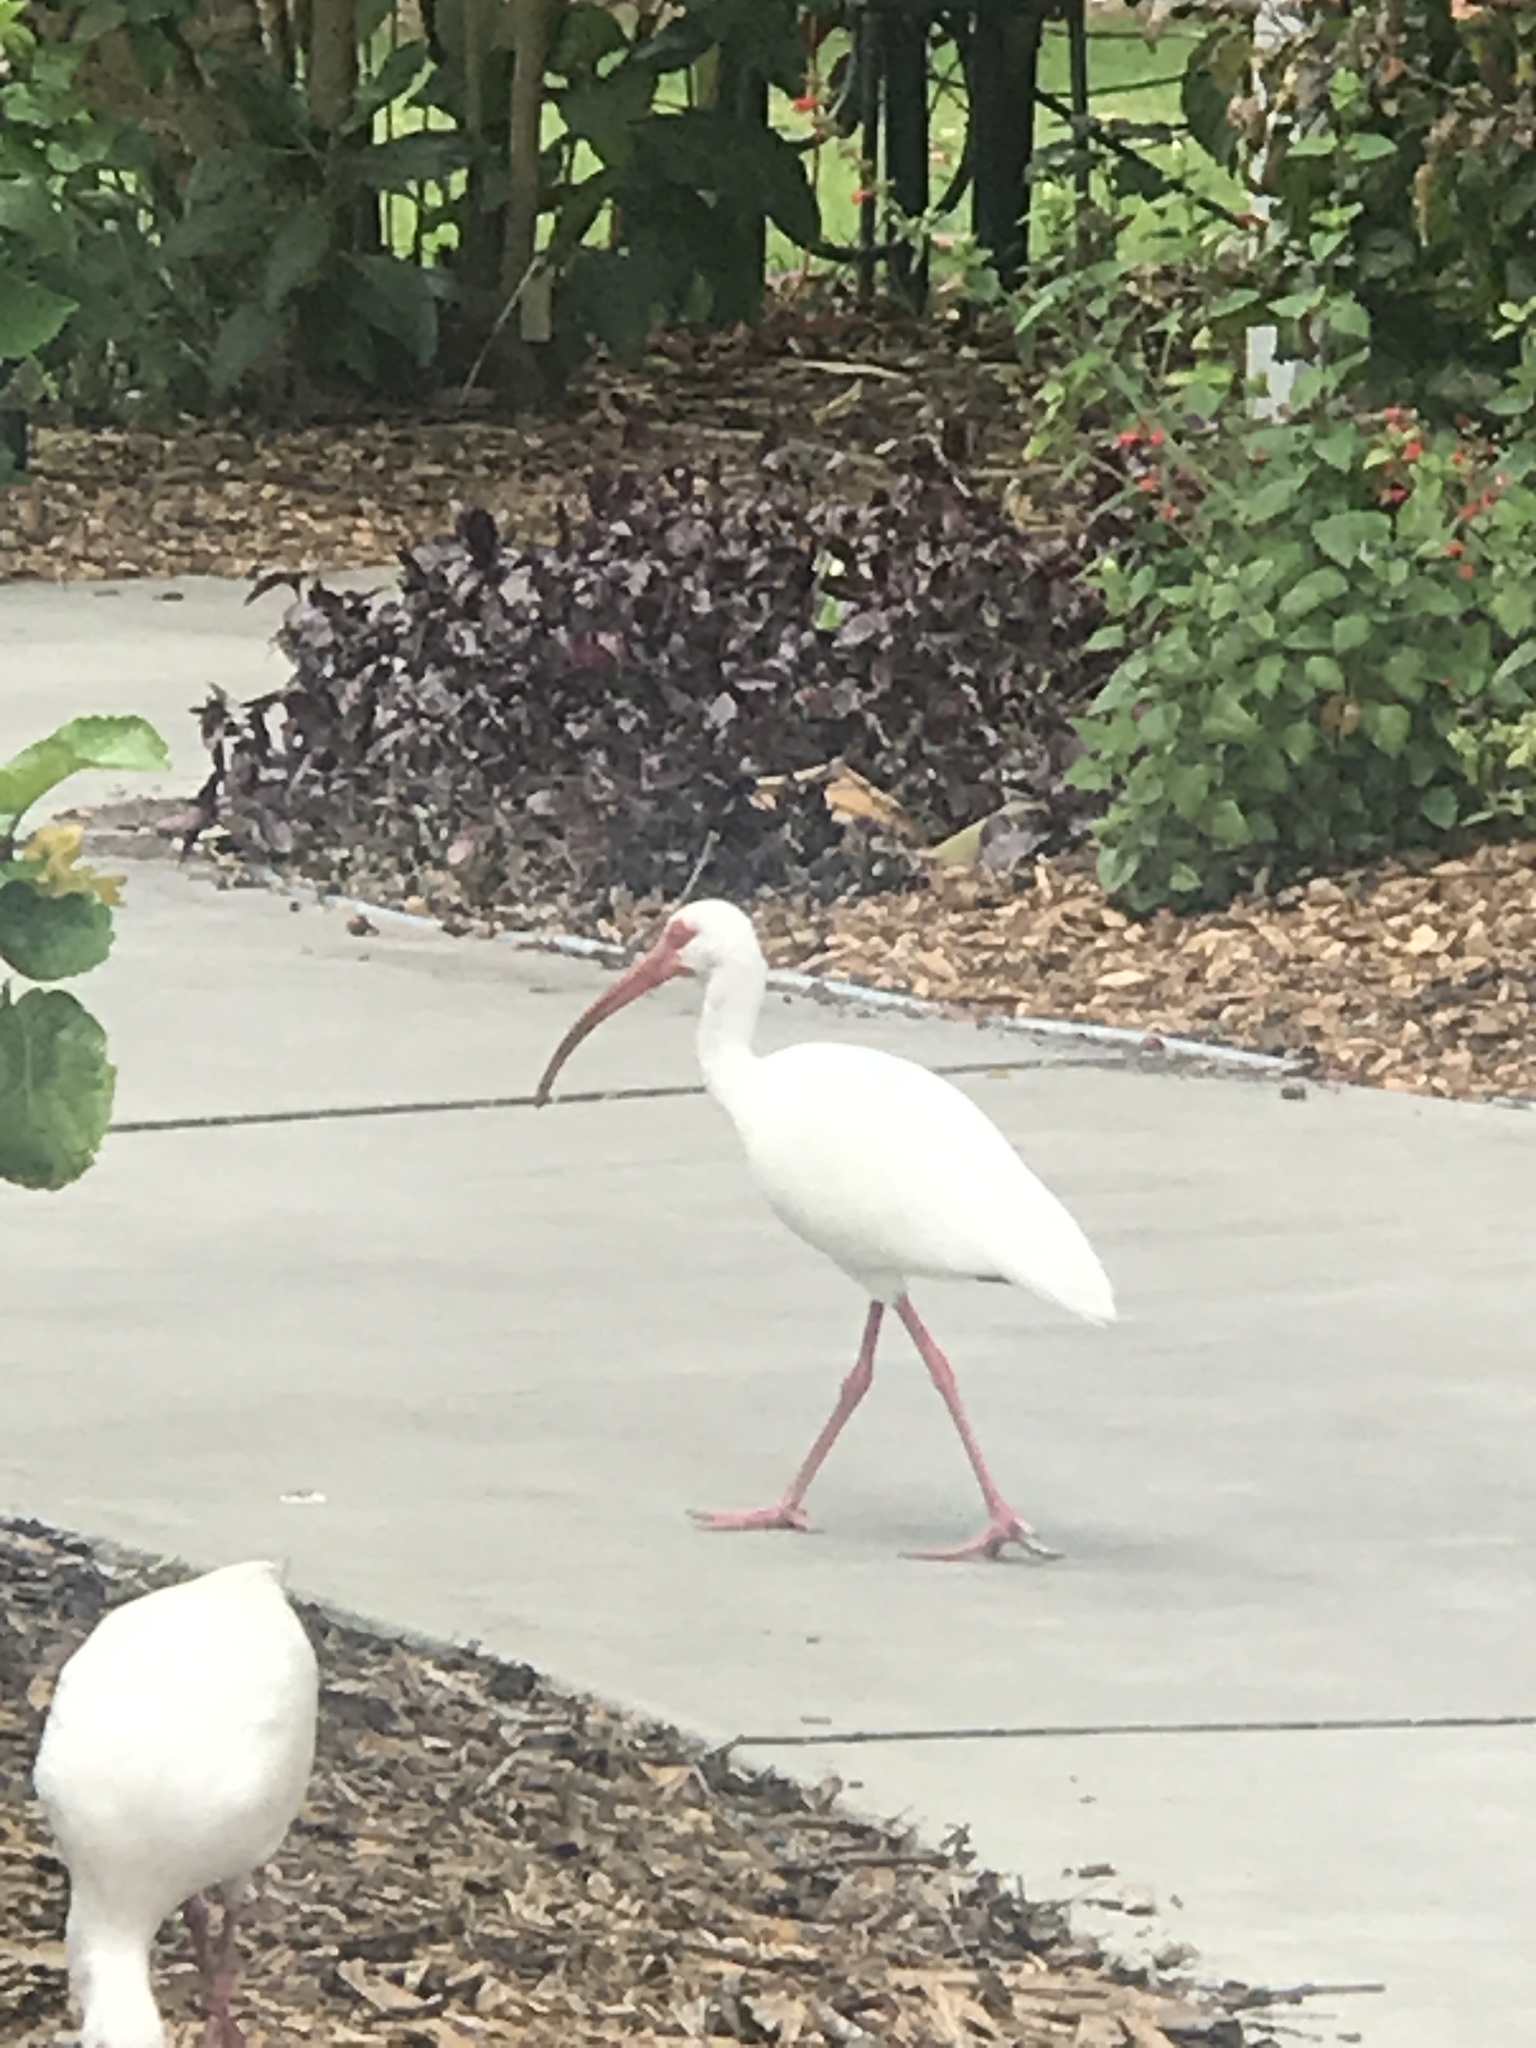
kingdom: Animalia
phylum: Chordata
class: Aves
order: Pelecaniformes
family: Threskiornithidae
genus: Eudocimus
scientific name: Eudocimus albus
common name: White ibis
